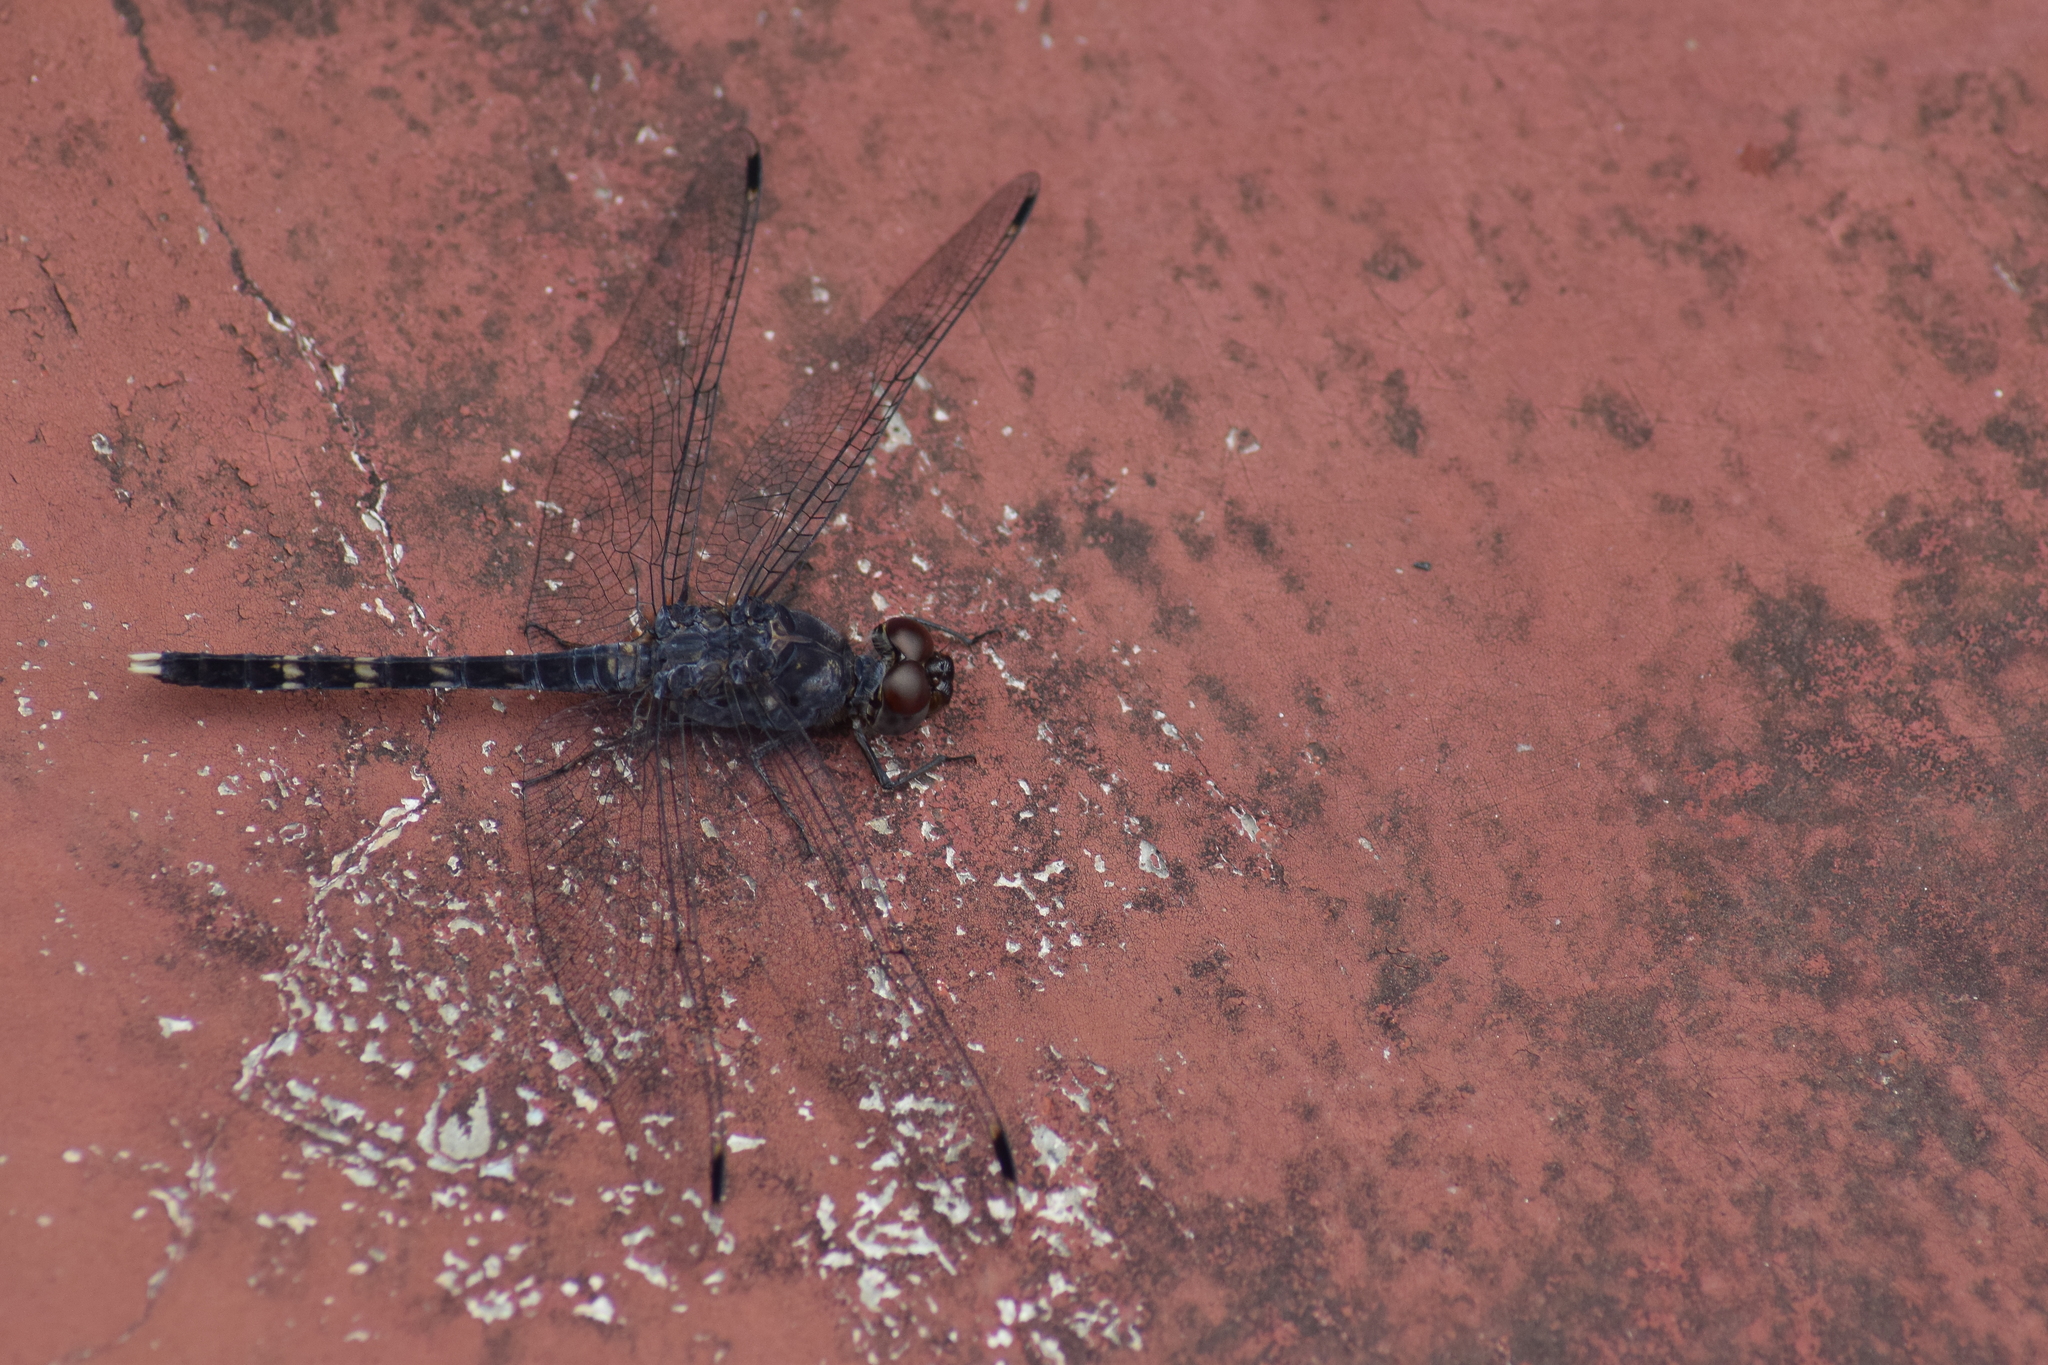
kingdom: Animalia
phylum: Arthropoda
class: Insecta
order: Odonata
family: Libellulidae
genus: Bradinopyga
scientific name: Bradinopyga geminata
